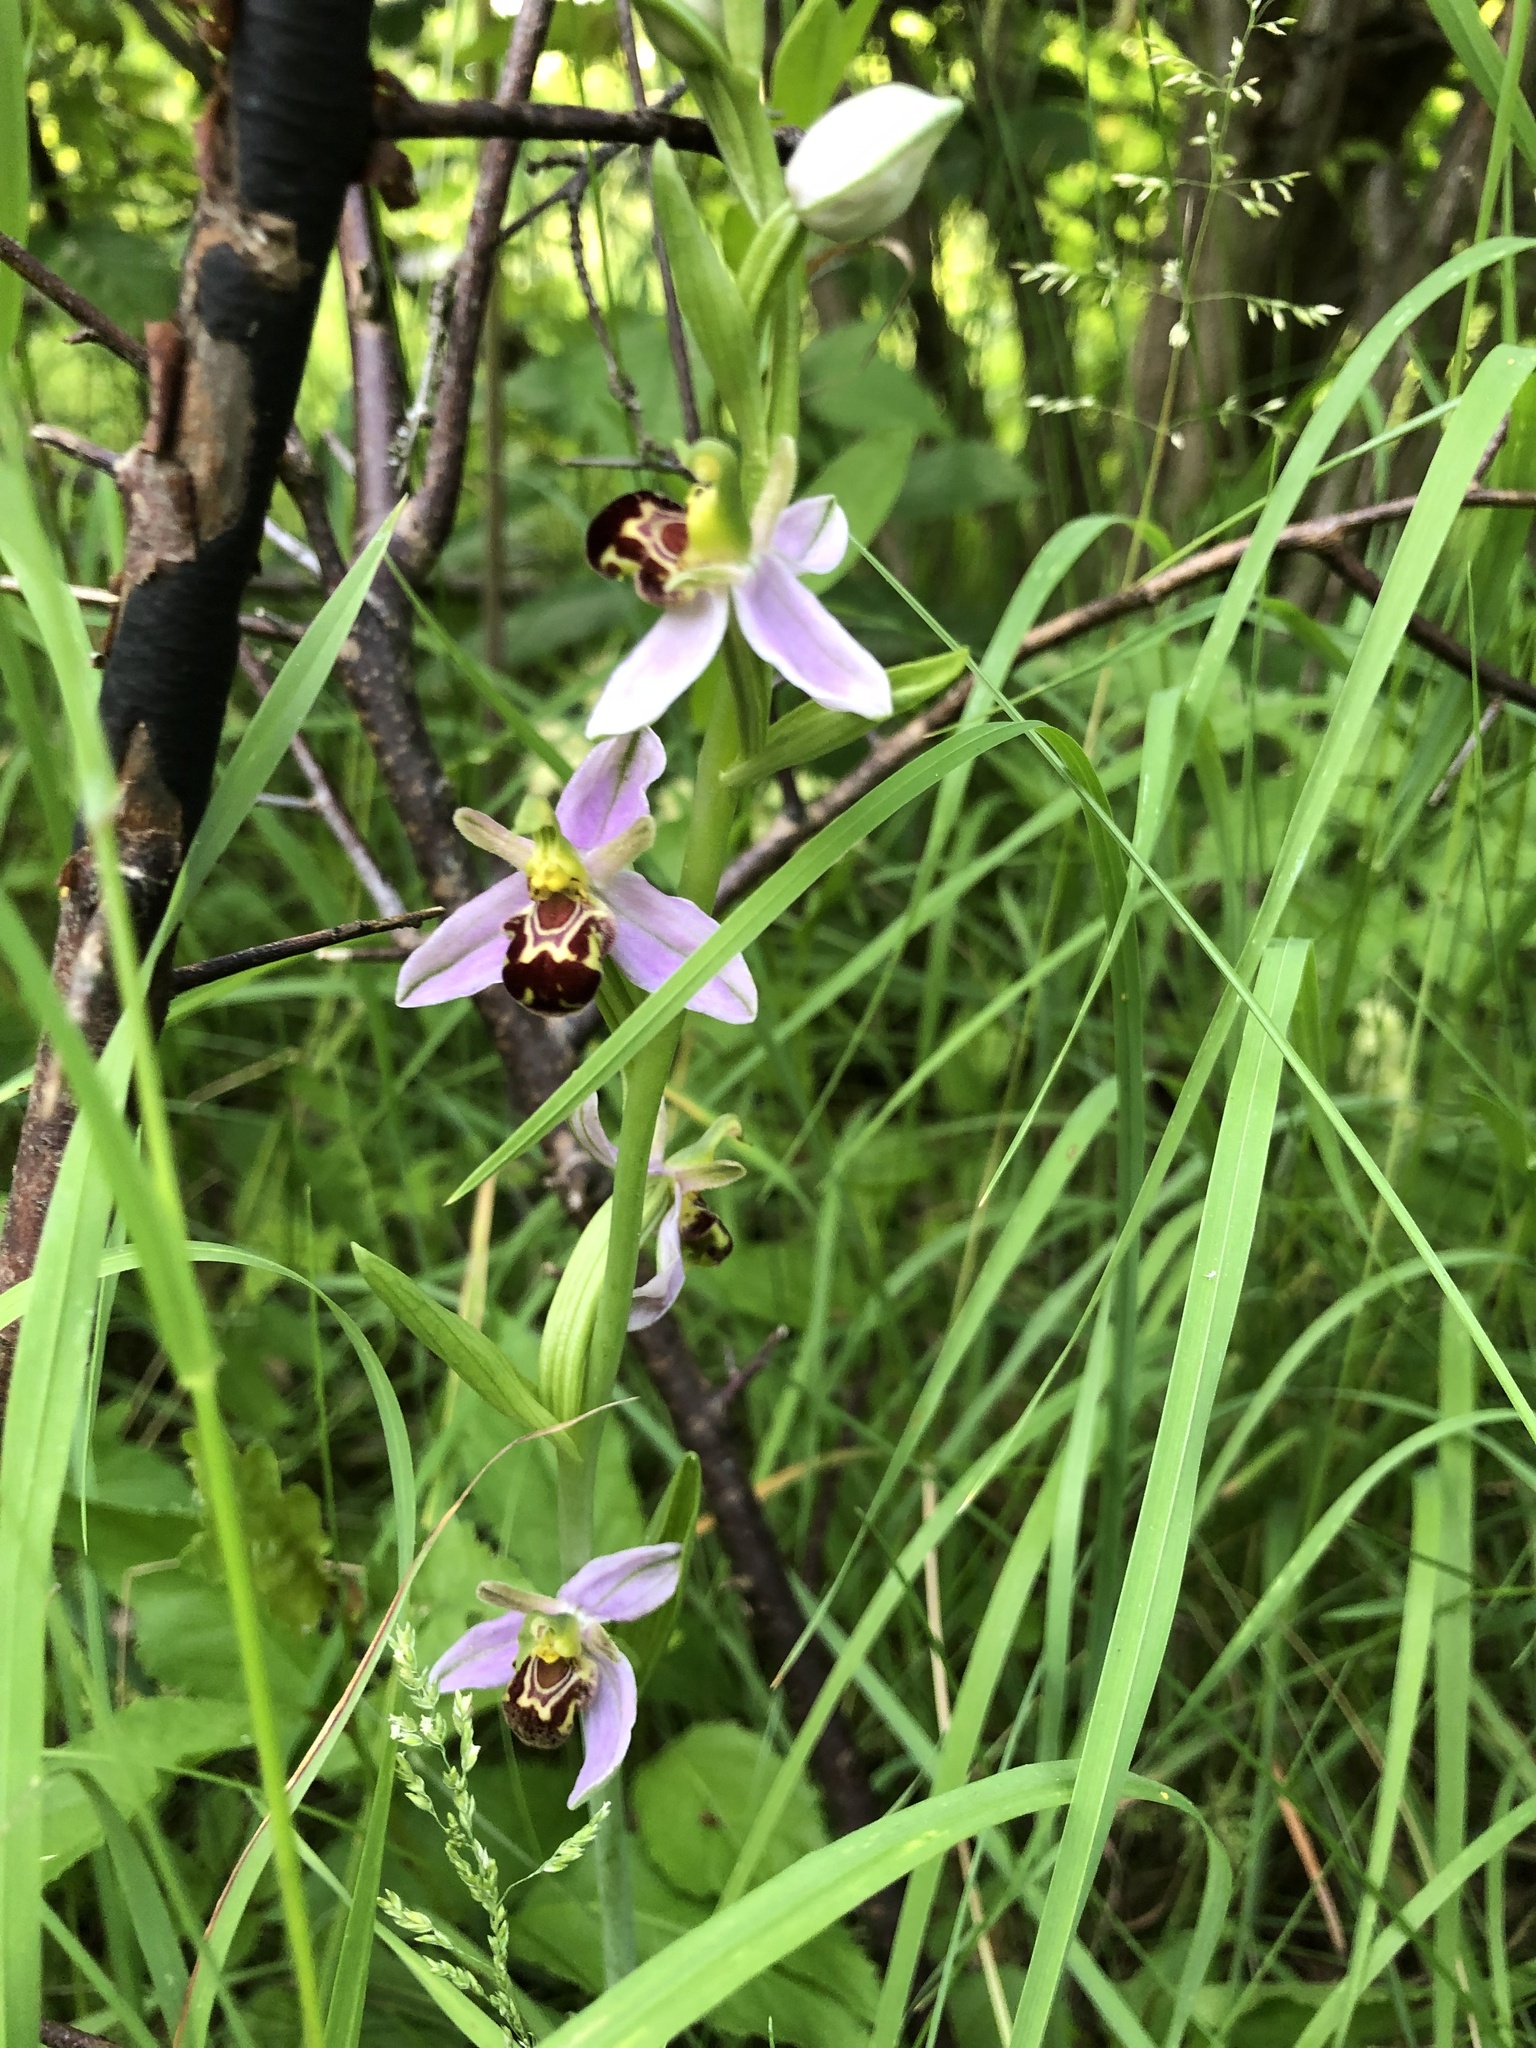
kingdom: Plantae
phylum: Tracheophyta
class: Liliopsida
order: Asparagales
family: Orchidaceae
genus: Ophrys
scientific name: Ophrys apifera
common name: Bee orchid
